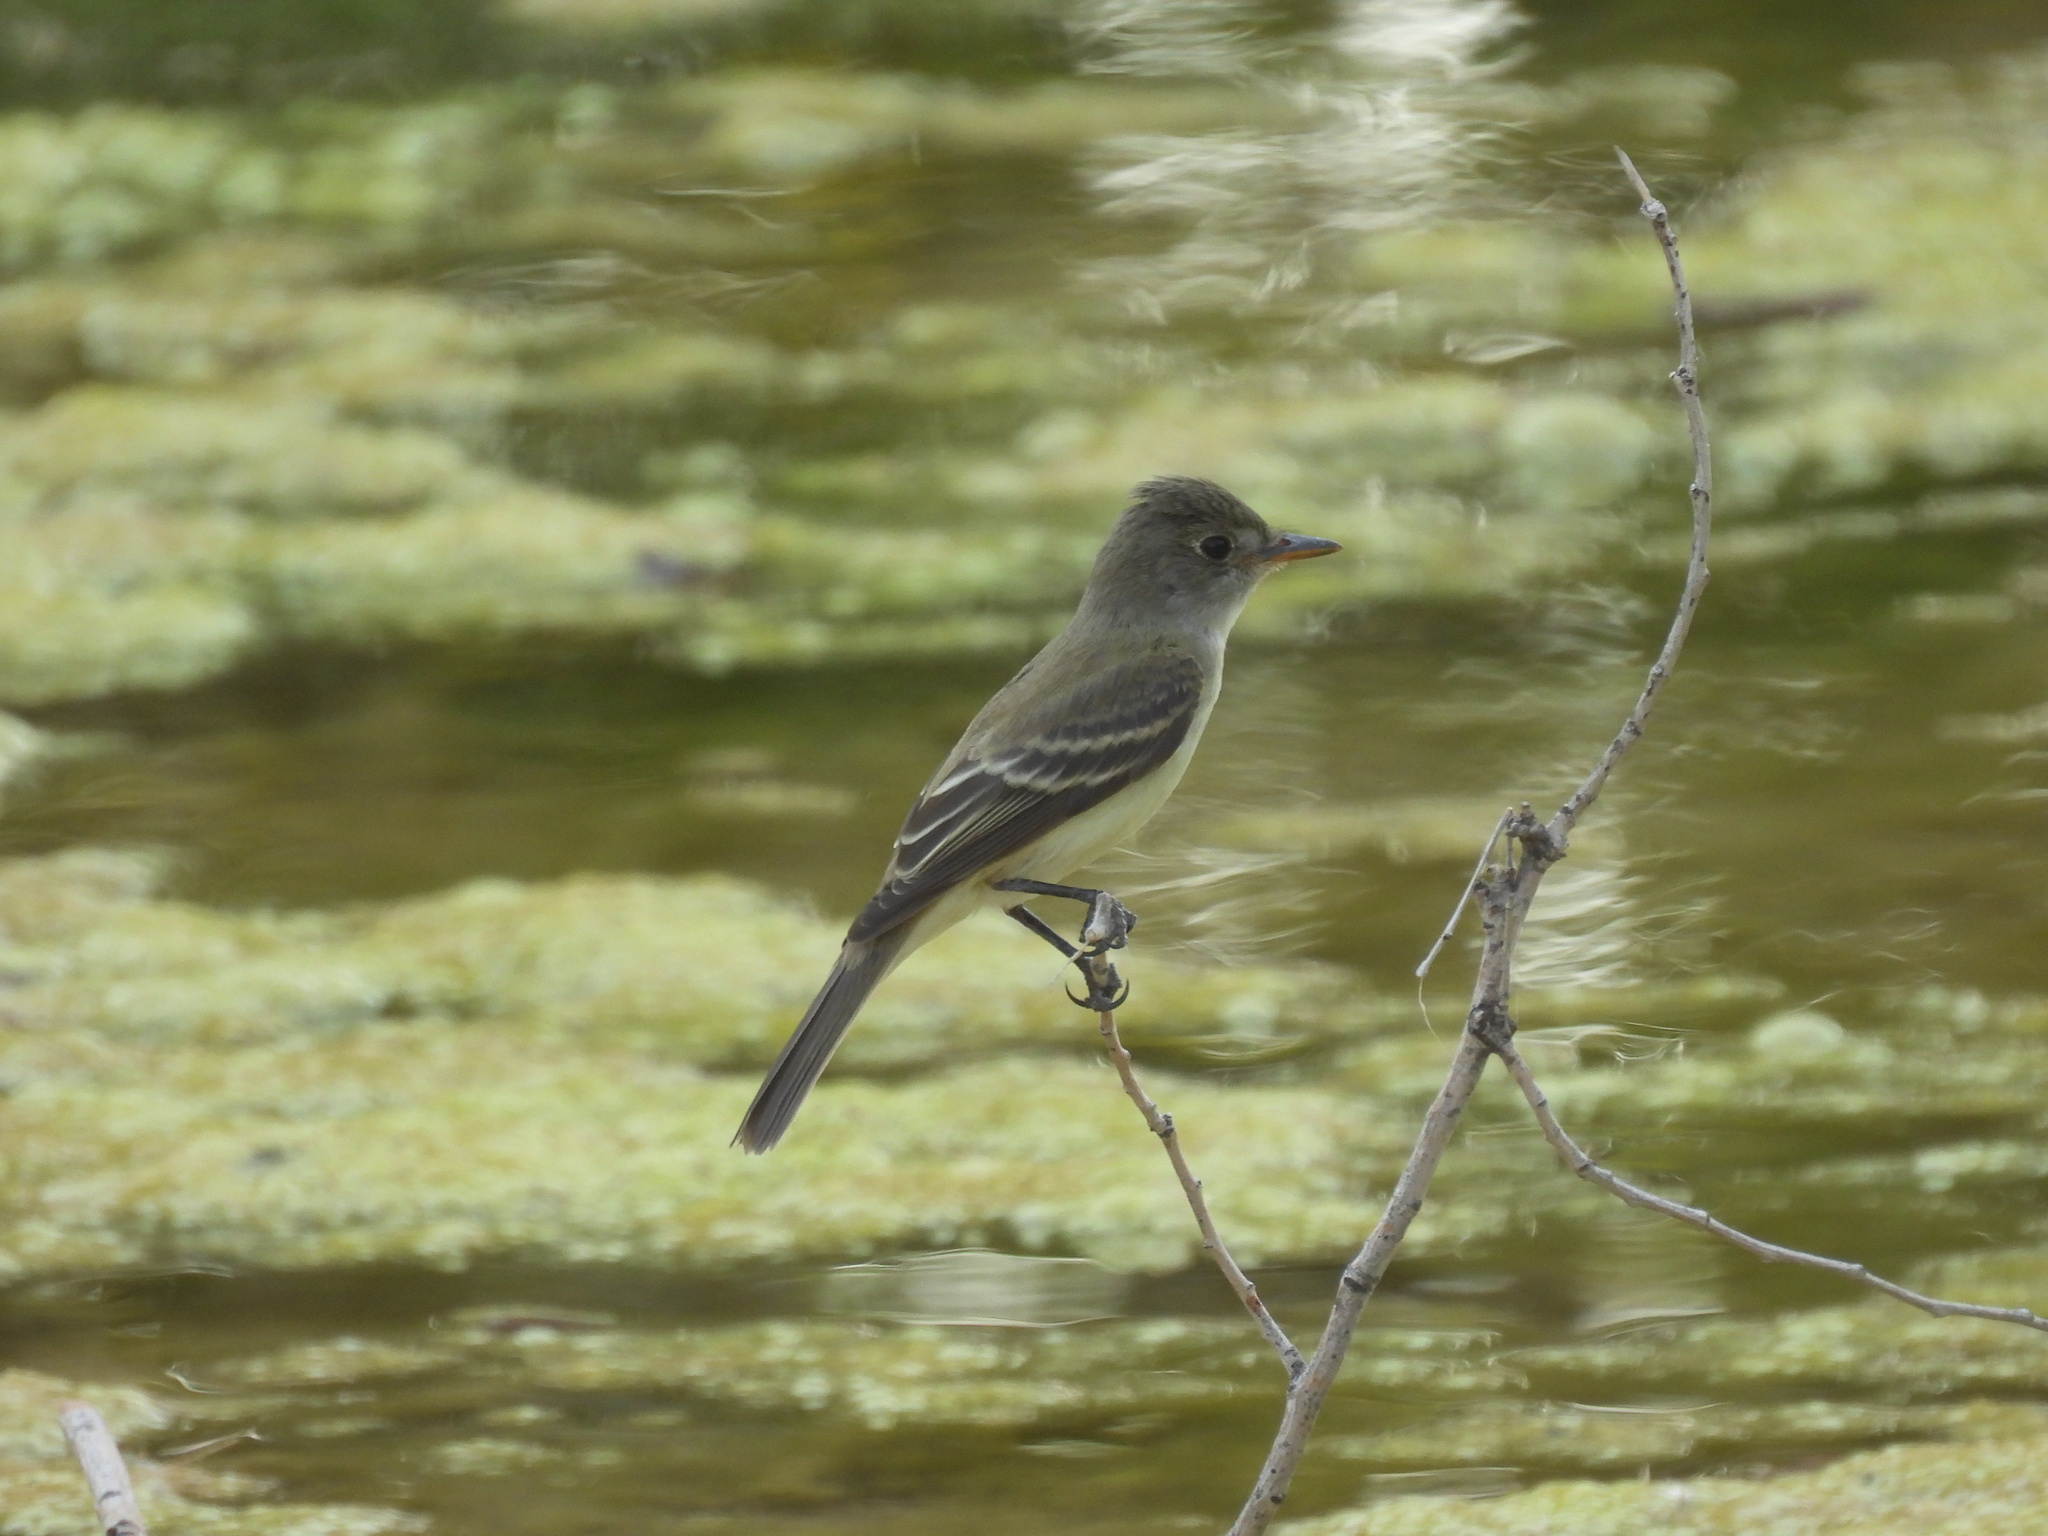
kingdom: Animalia
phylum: Chordata
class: Aves
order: Passeriformes
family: Tyrannidae
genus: Empidonax
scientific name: Empidonax traillii
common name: Willow flycatcher
